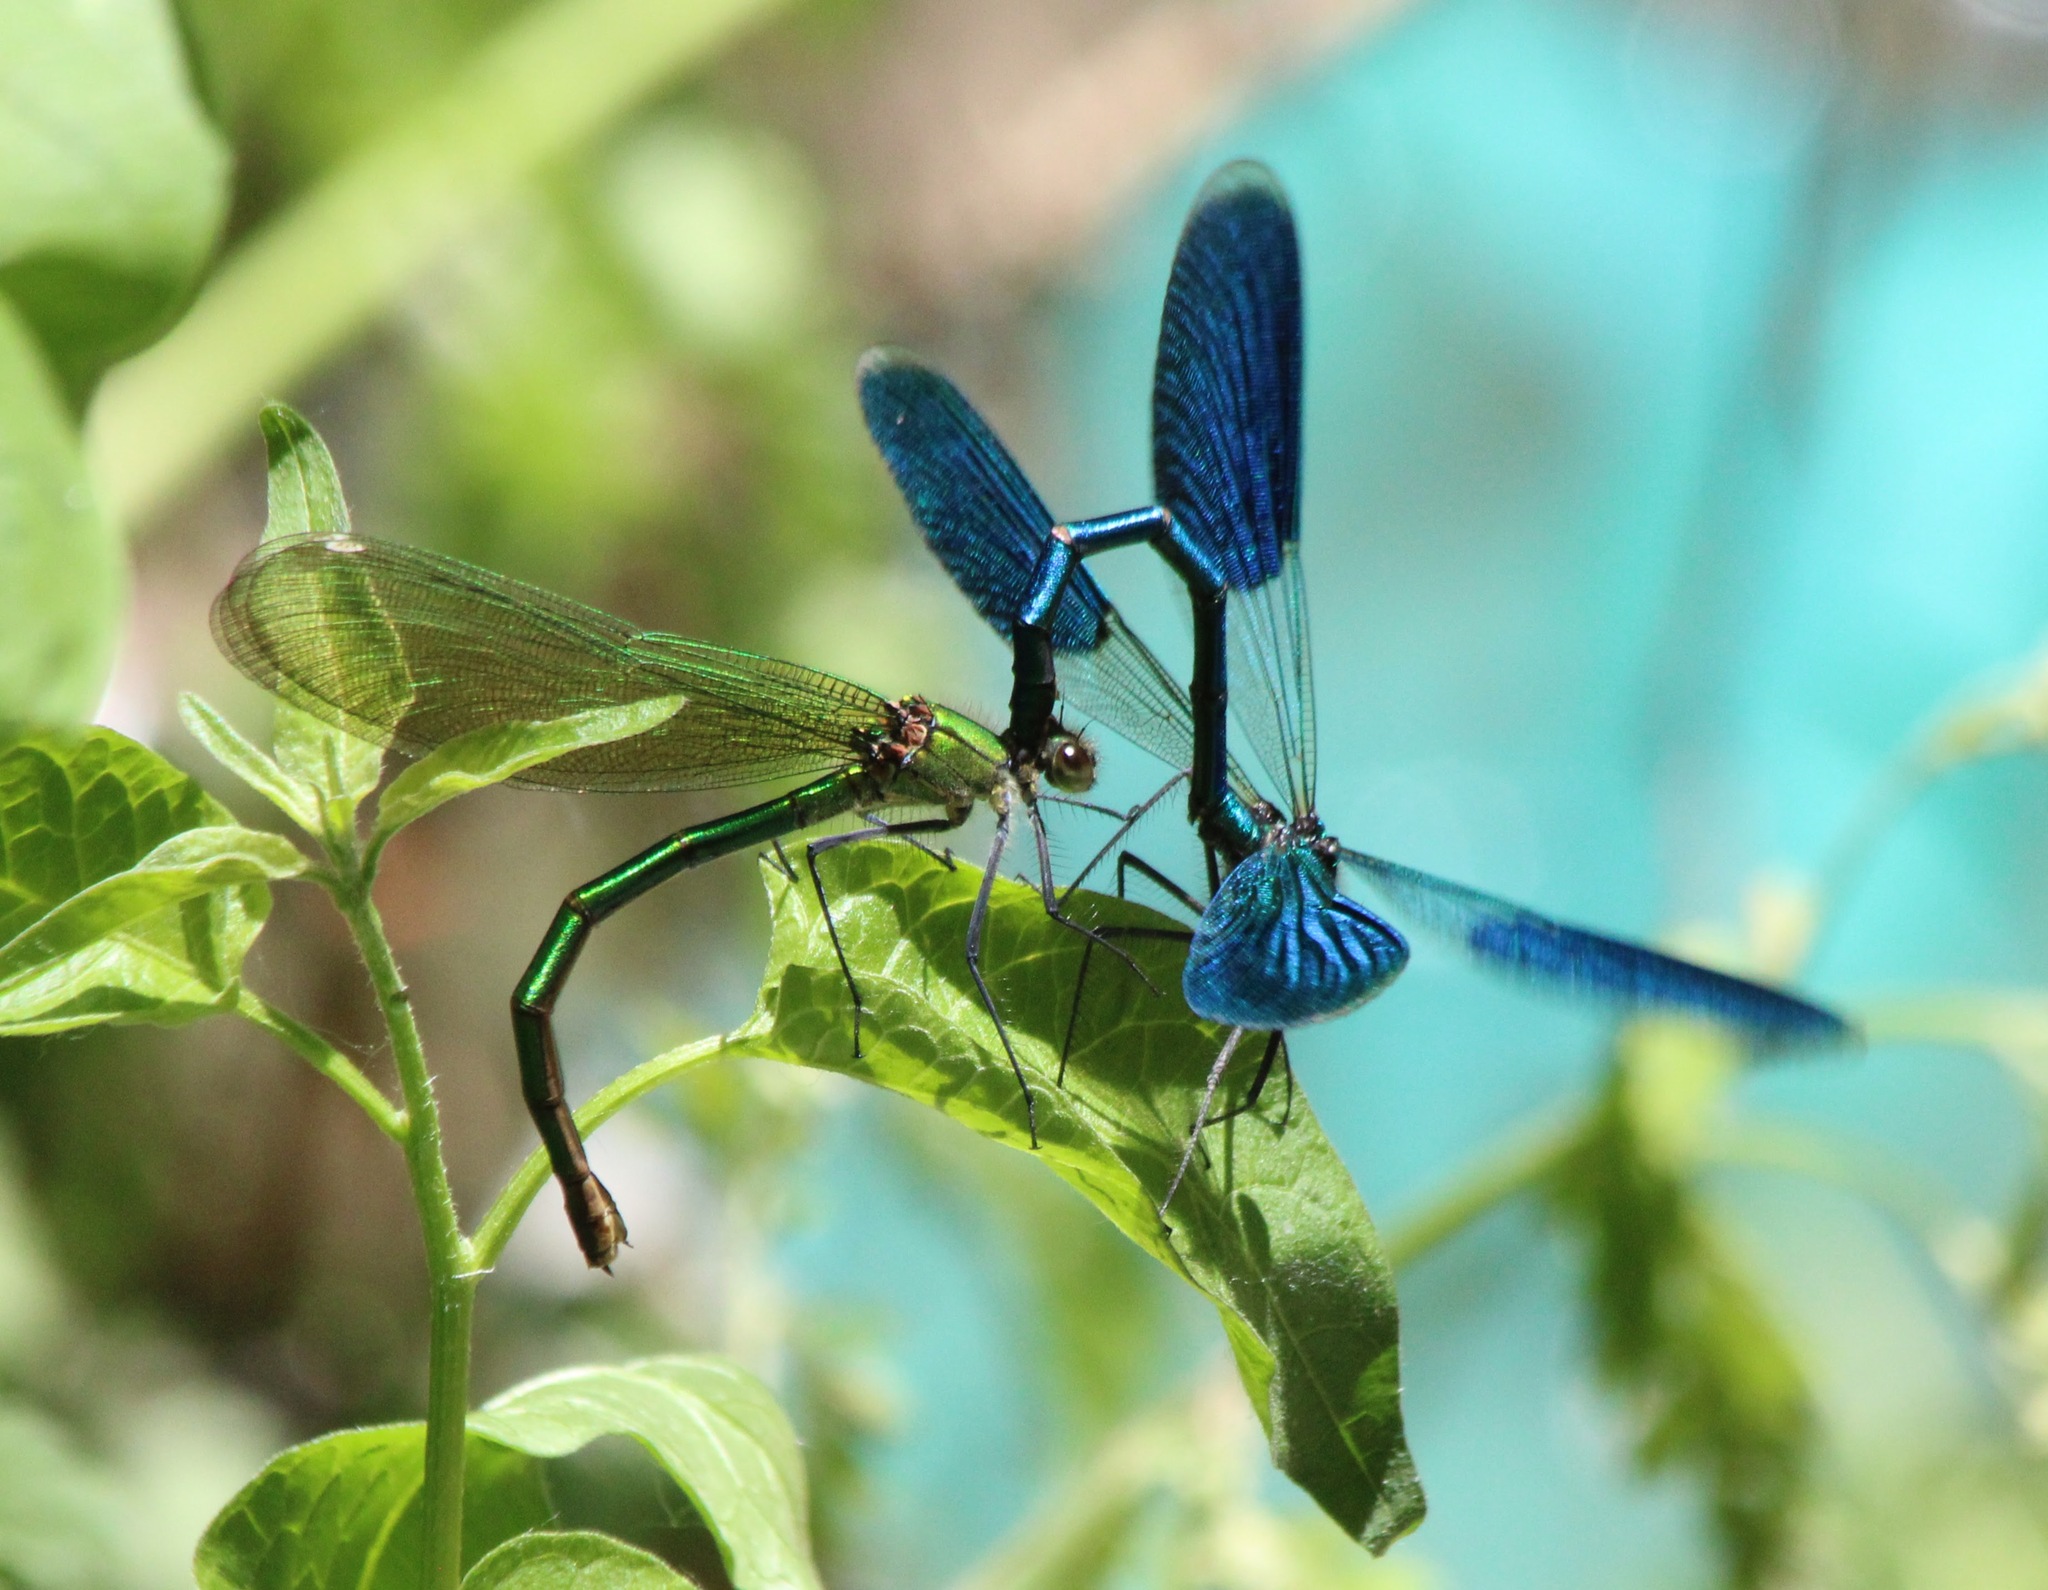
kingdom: Animalia
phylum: Arthropoda
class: Insecta
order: Odonata
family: Calopterygidae
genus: Calopteryx
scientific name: Calopteryx splendens
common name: Banded demoiselle
